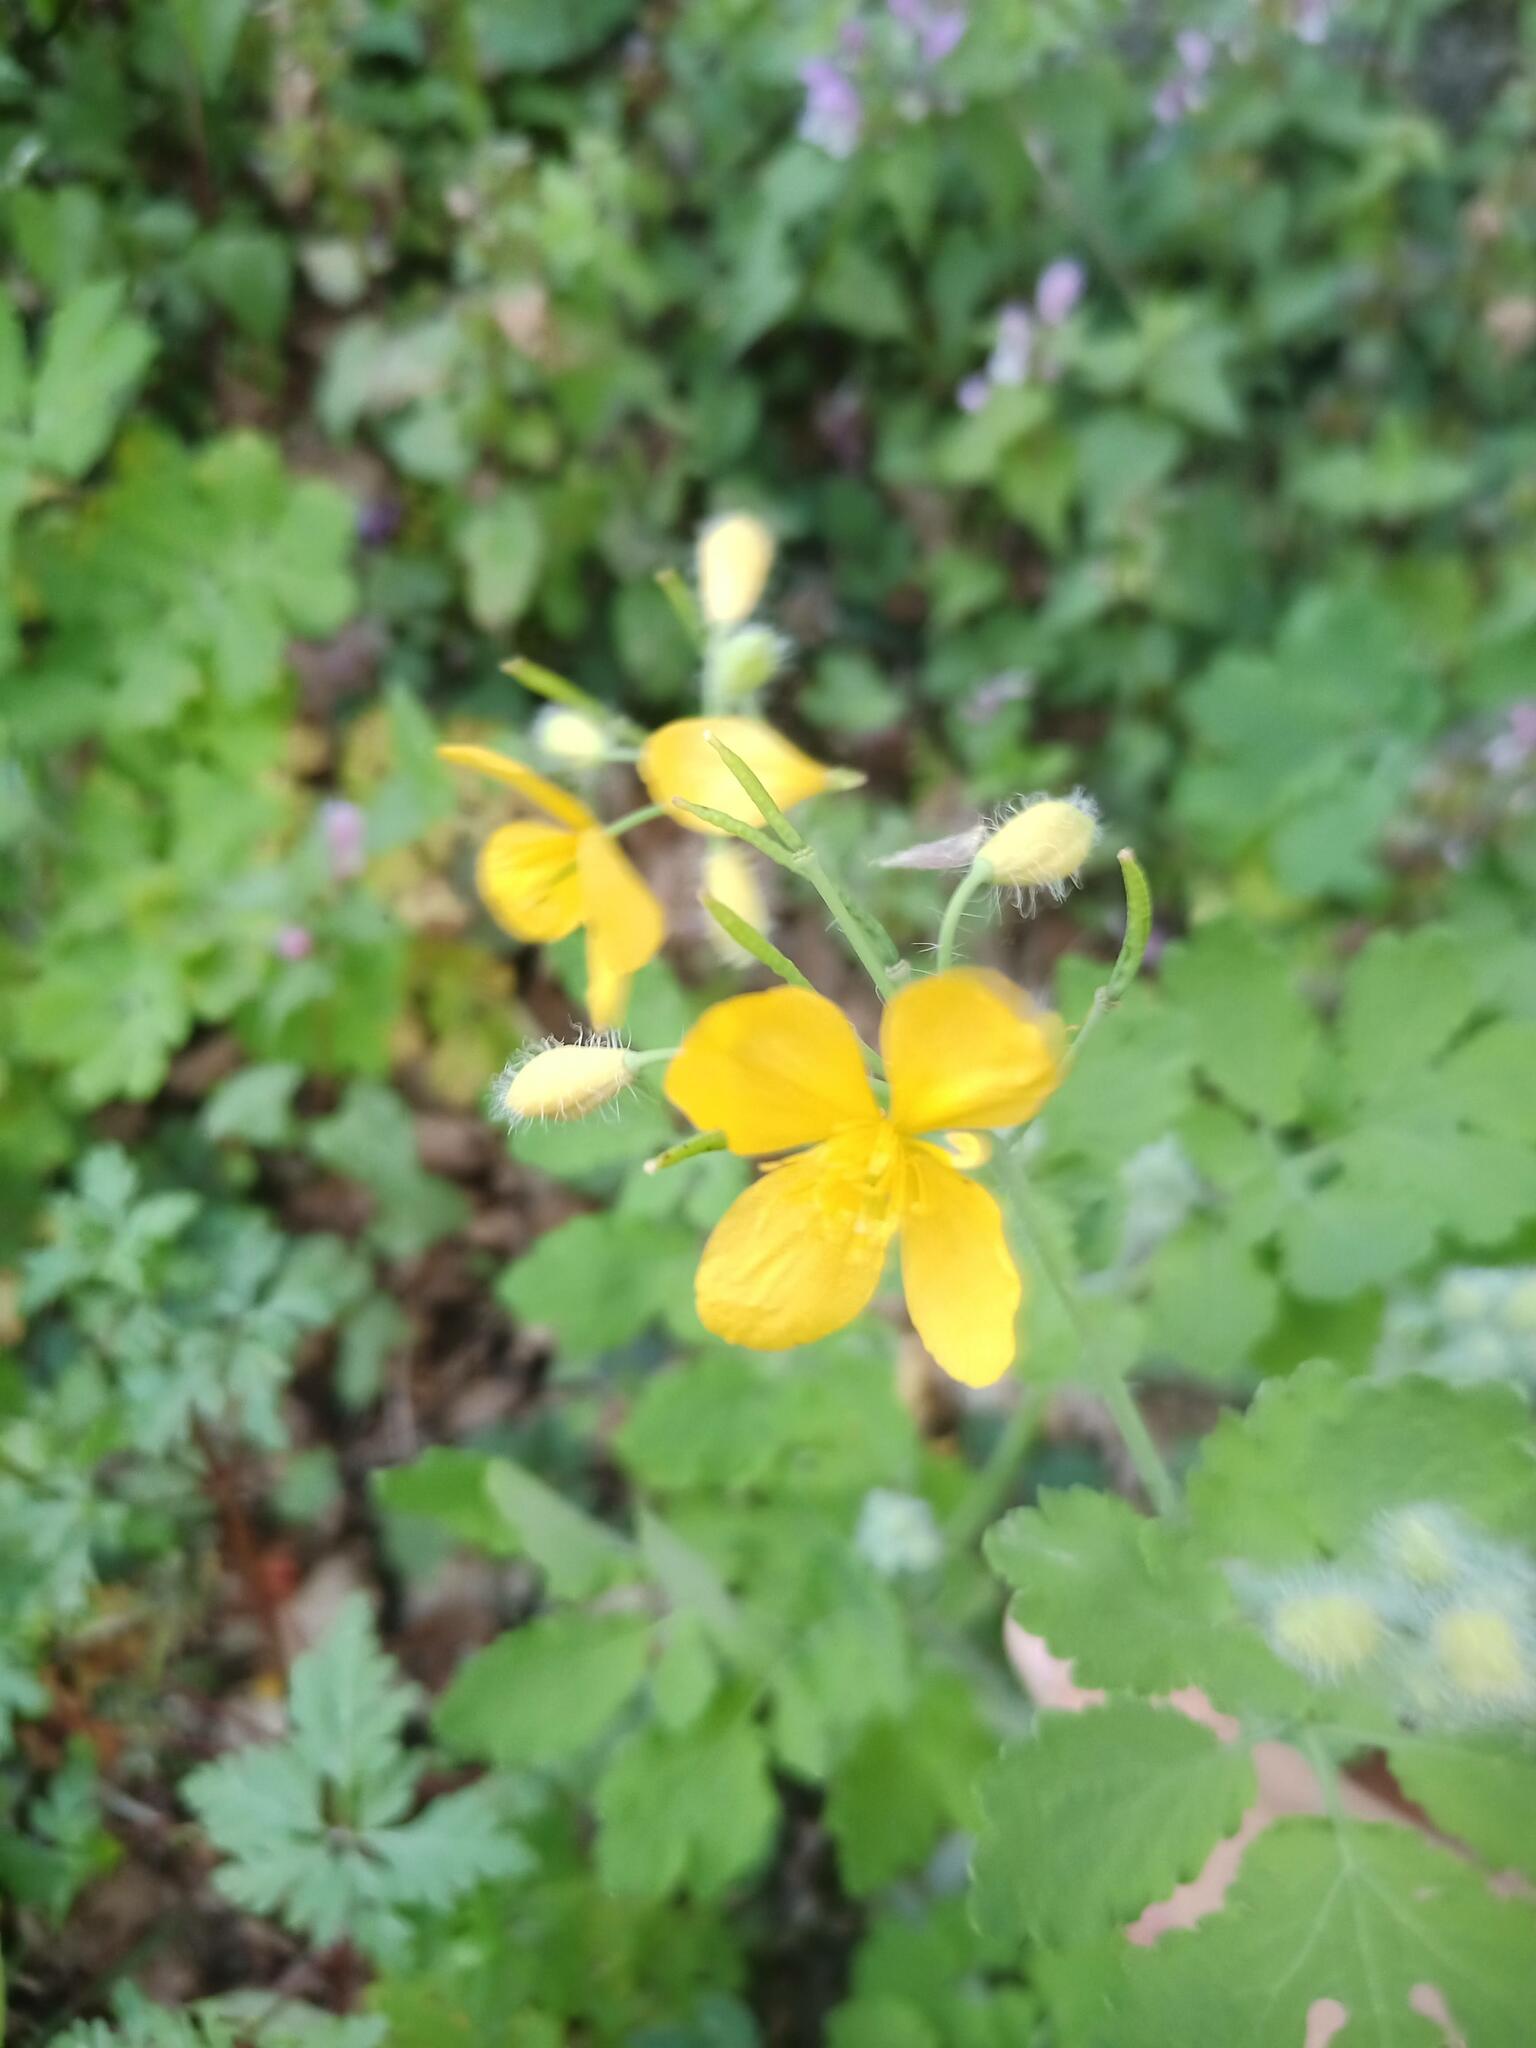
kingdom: Plantae
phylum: Tracheophyta
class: Magnoliopsida
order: Ranunculales
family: Papaveraceae
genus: Chelidonium
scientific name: Chelidonium majus
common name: Greater celandine
